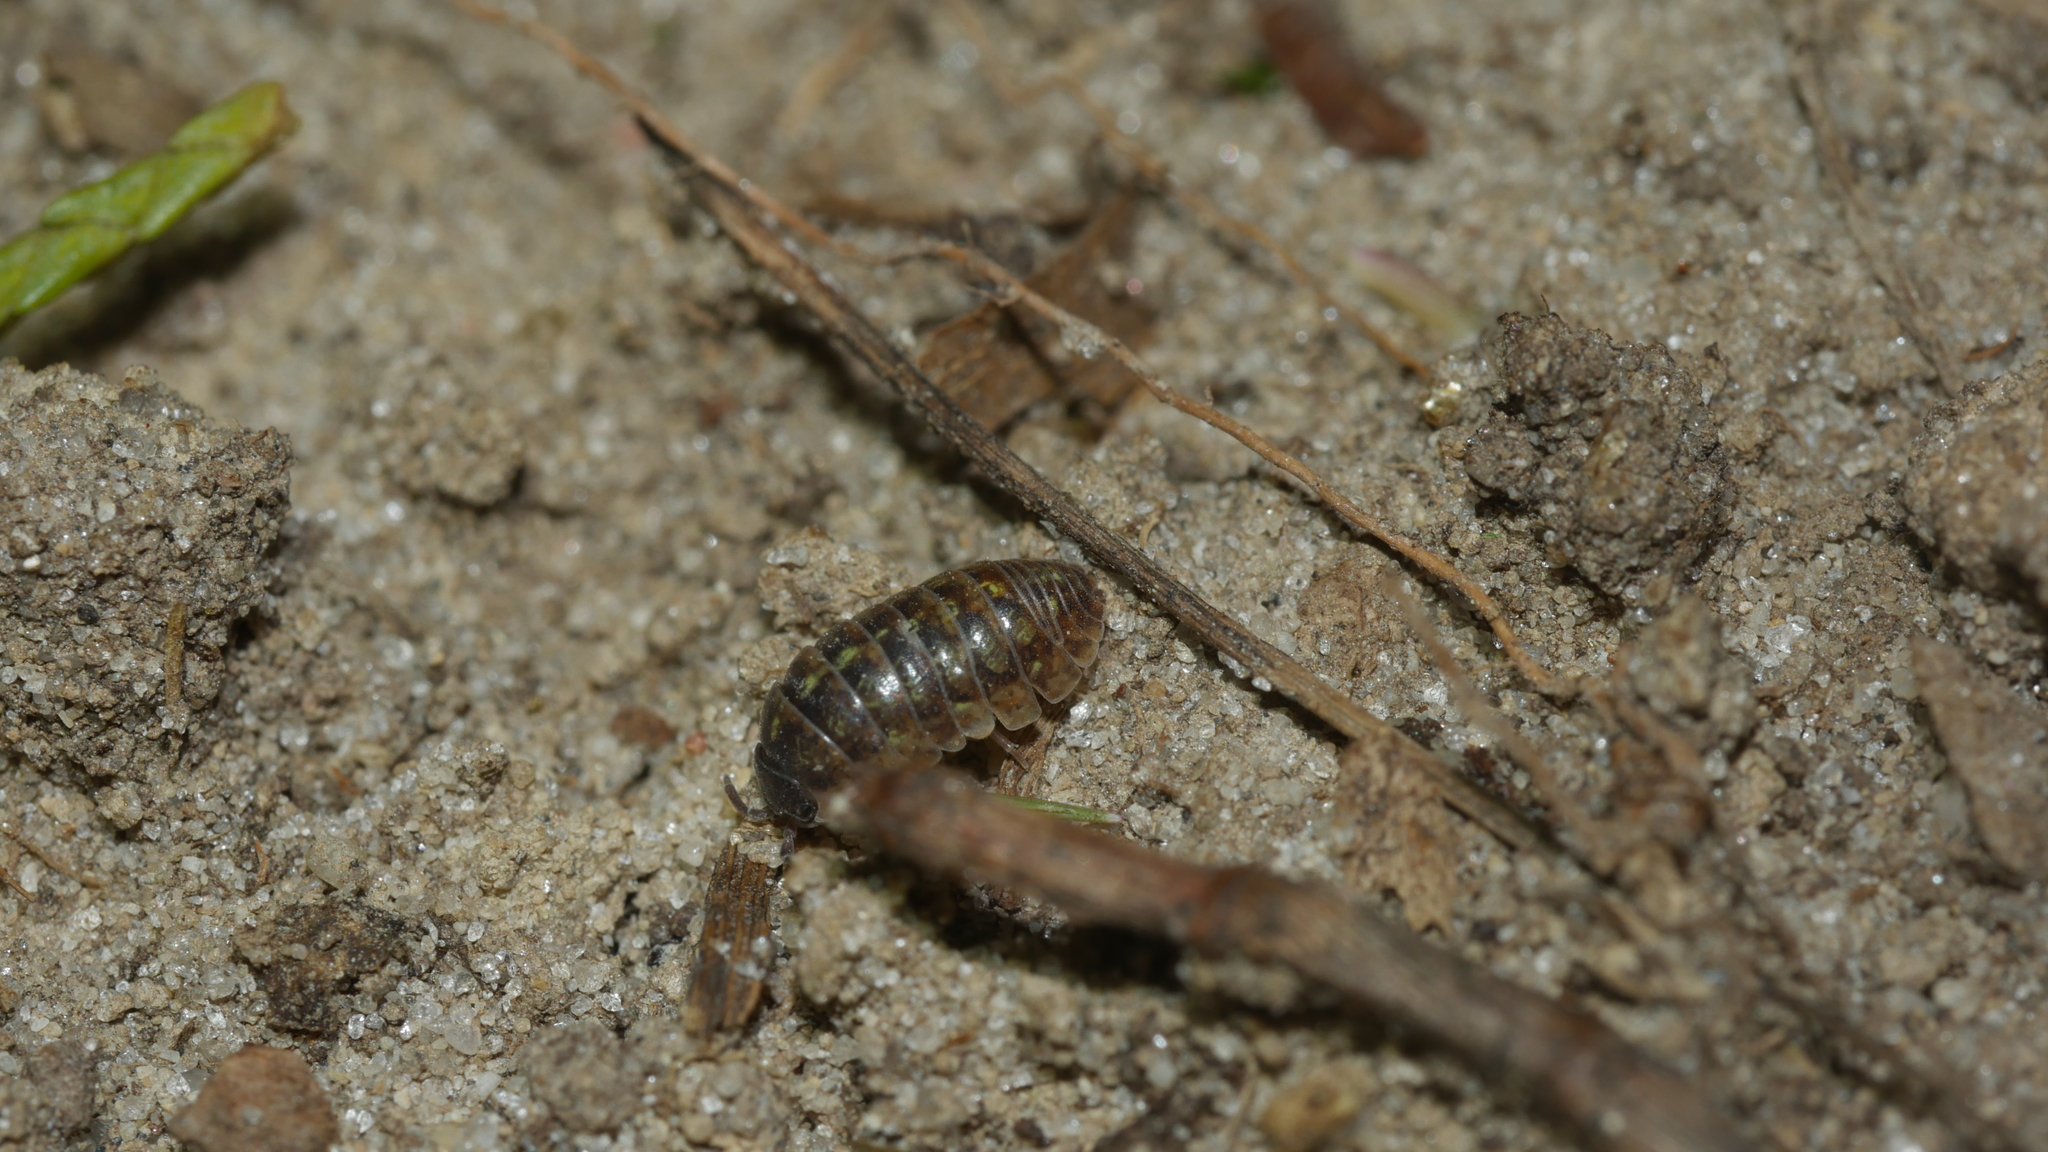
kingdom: Animalia
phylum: Arthropoda
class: Malacostraca
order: Isopoda
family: Armadillidiidae
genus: Armadillidium
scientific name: Armadillidium vulgare
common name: Common pill woodlouse
